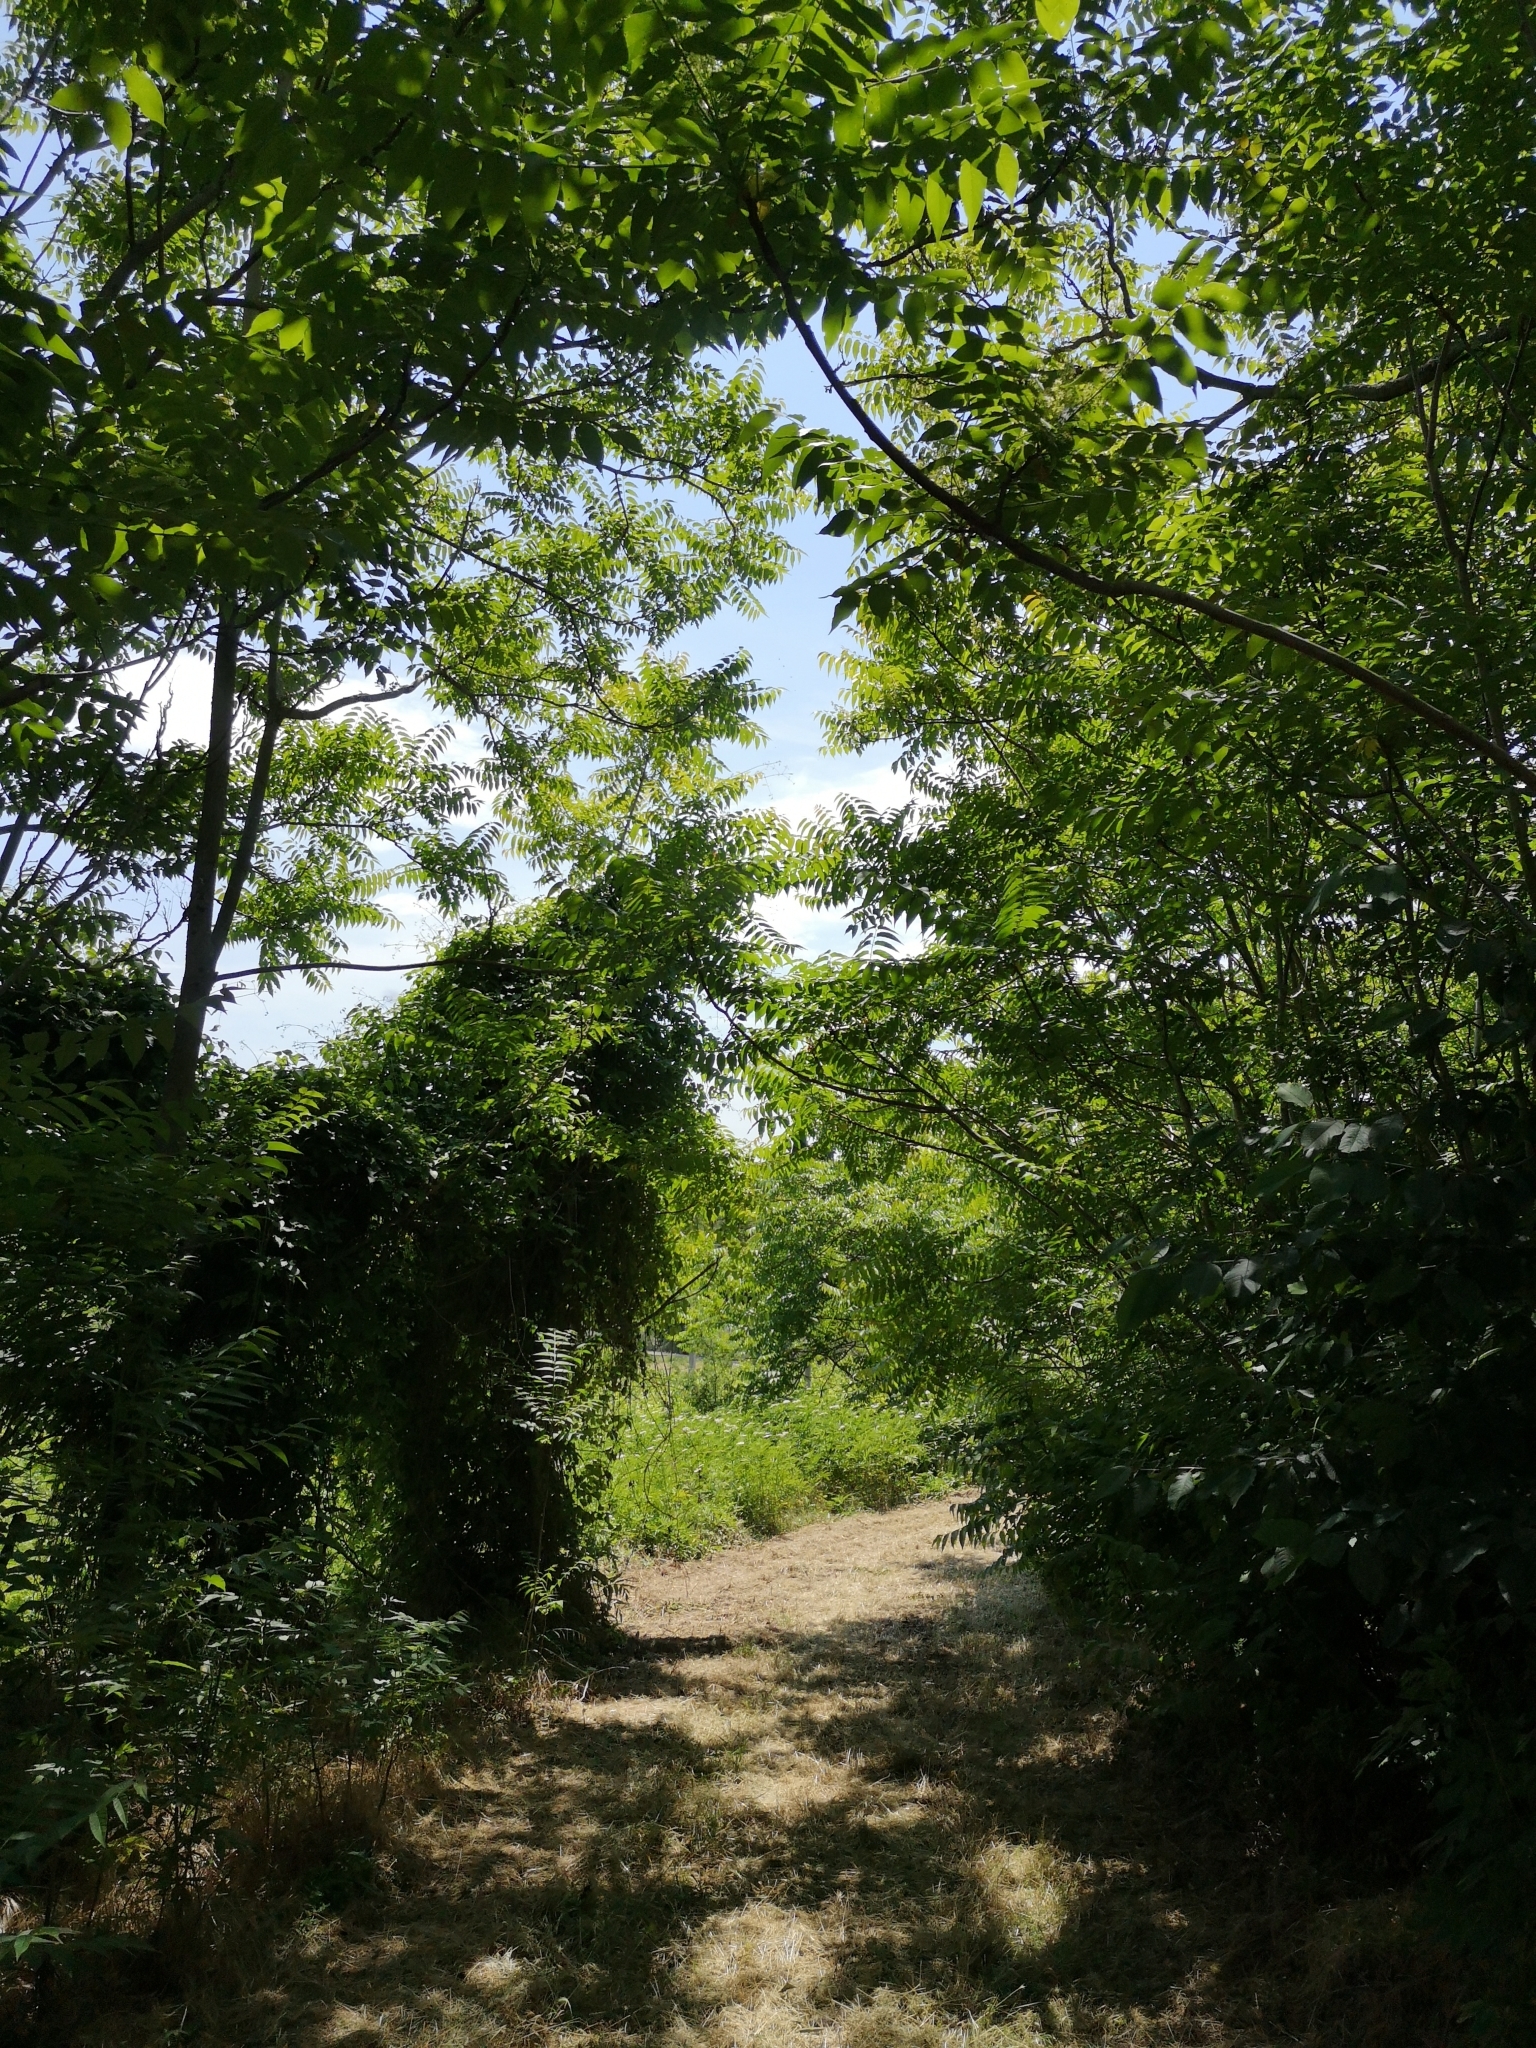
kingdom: Plantae
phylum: Tracheophyta
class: Magnoliopsida
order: Sapindales
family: Simaroubaceae
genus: Ailanthus
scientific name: Ailanthus altissima
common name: Tree-of-heaven
